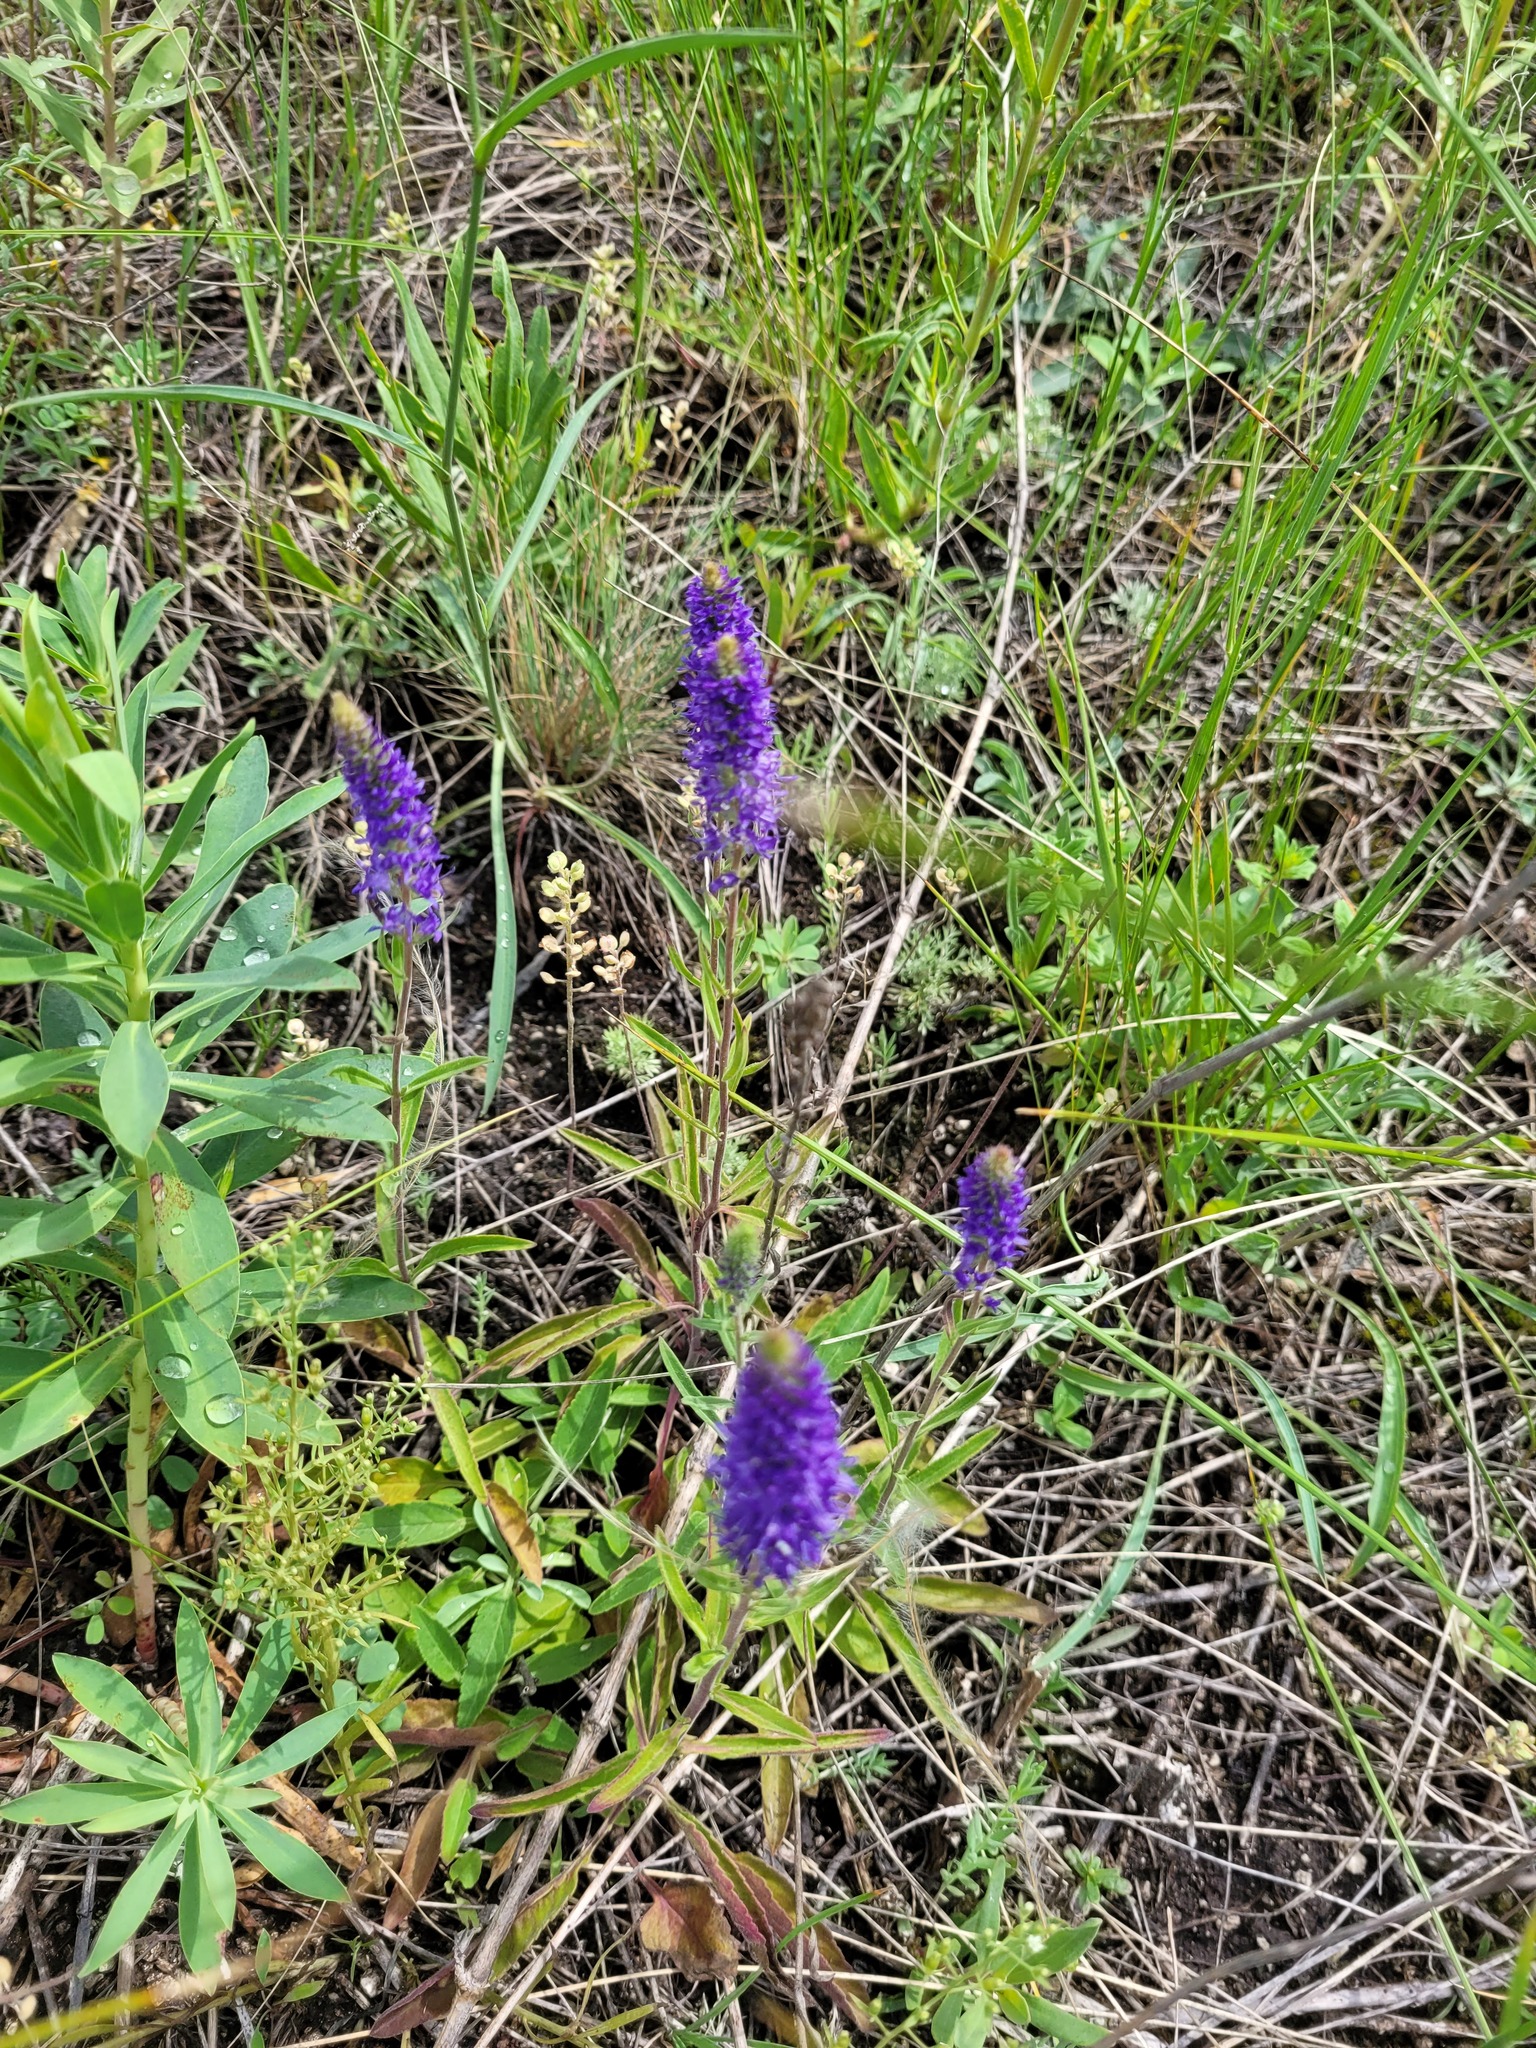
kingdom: Plantae
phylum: Tracheophyta
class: Magnoliopsida
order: Lamiales
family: Plantaginaceae
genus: Veronica
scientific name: Veronica spicata
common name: Spiked speedwell
